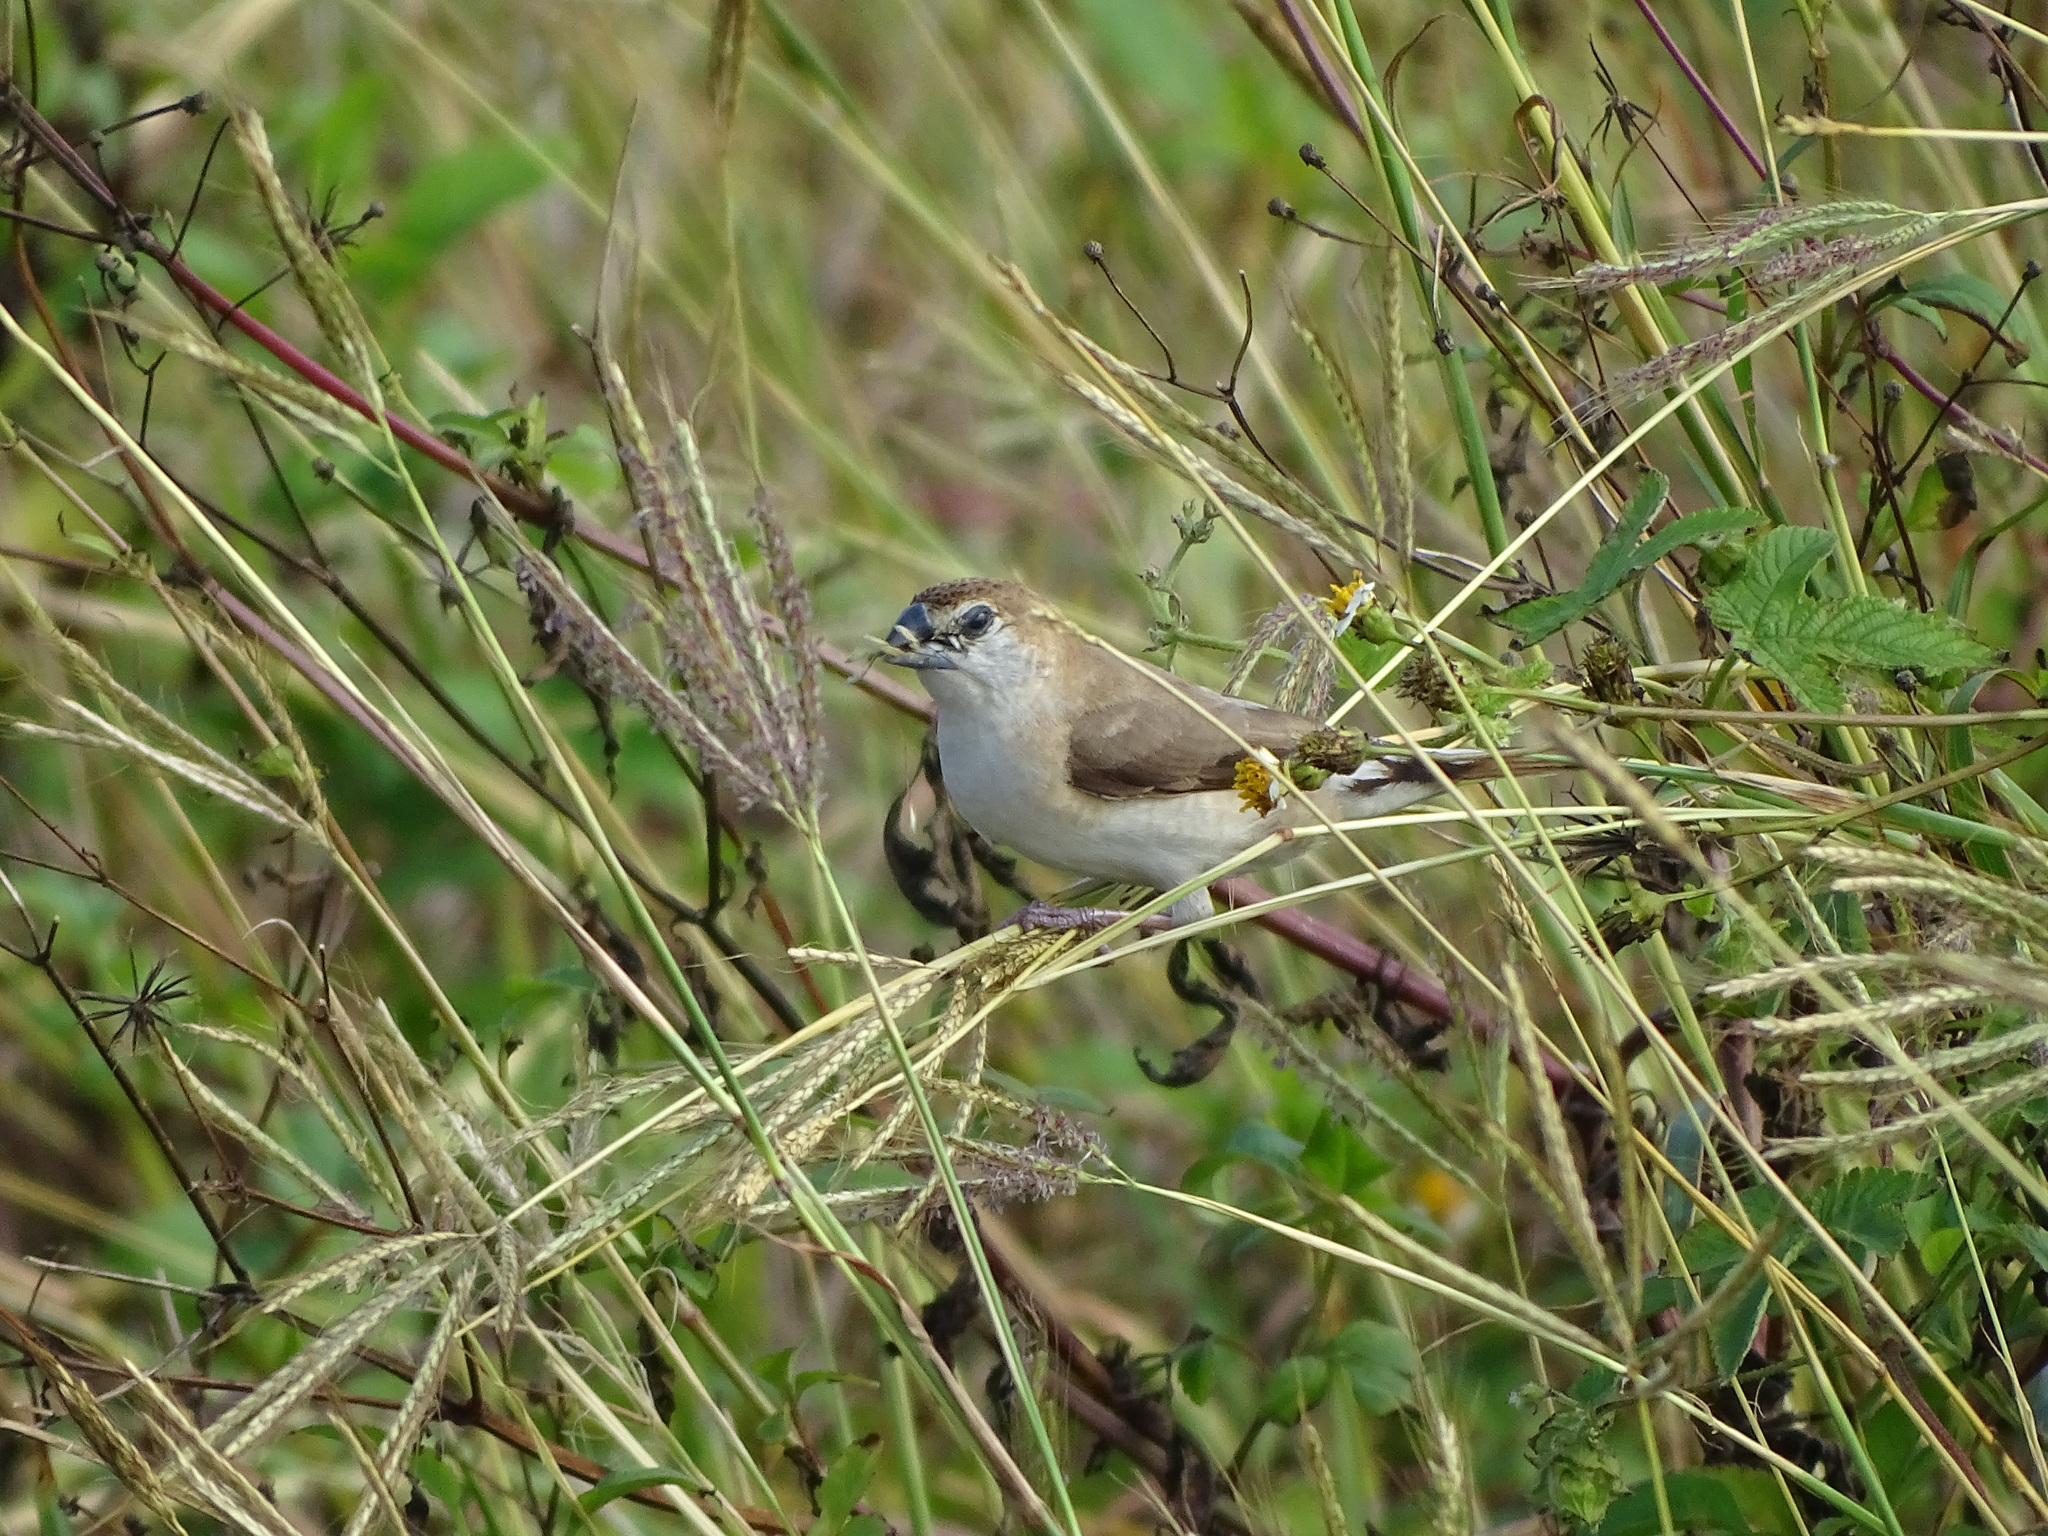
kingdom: Animalia
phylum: Chordata
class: Aves
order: Passeriformes
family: Estrildidae
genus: Euodice
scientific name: Euodice malabarica
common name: Indian silverbill
